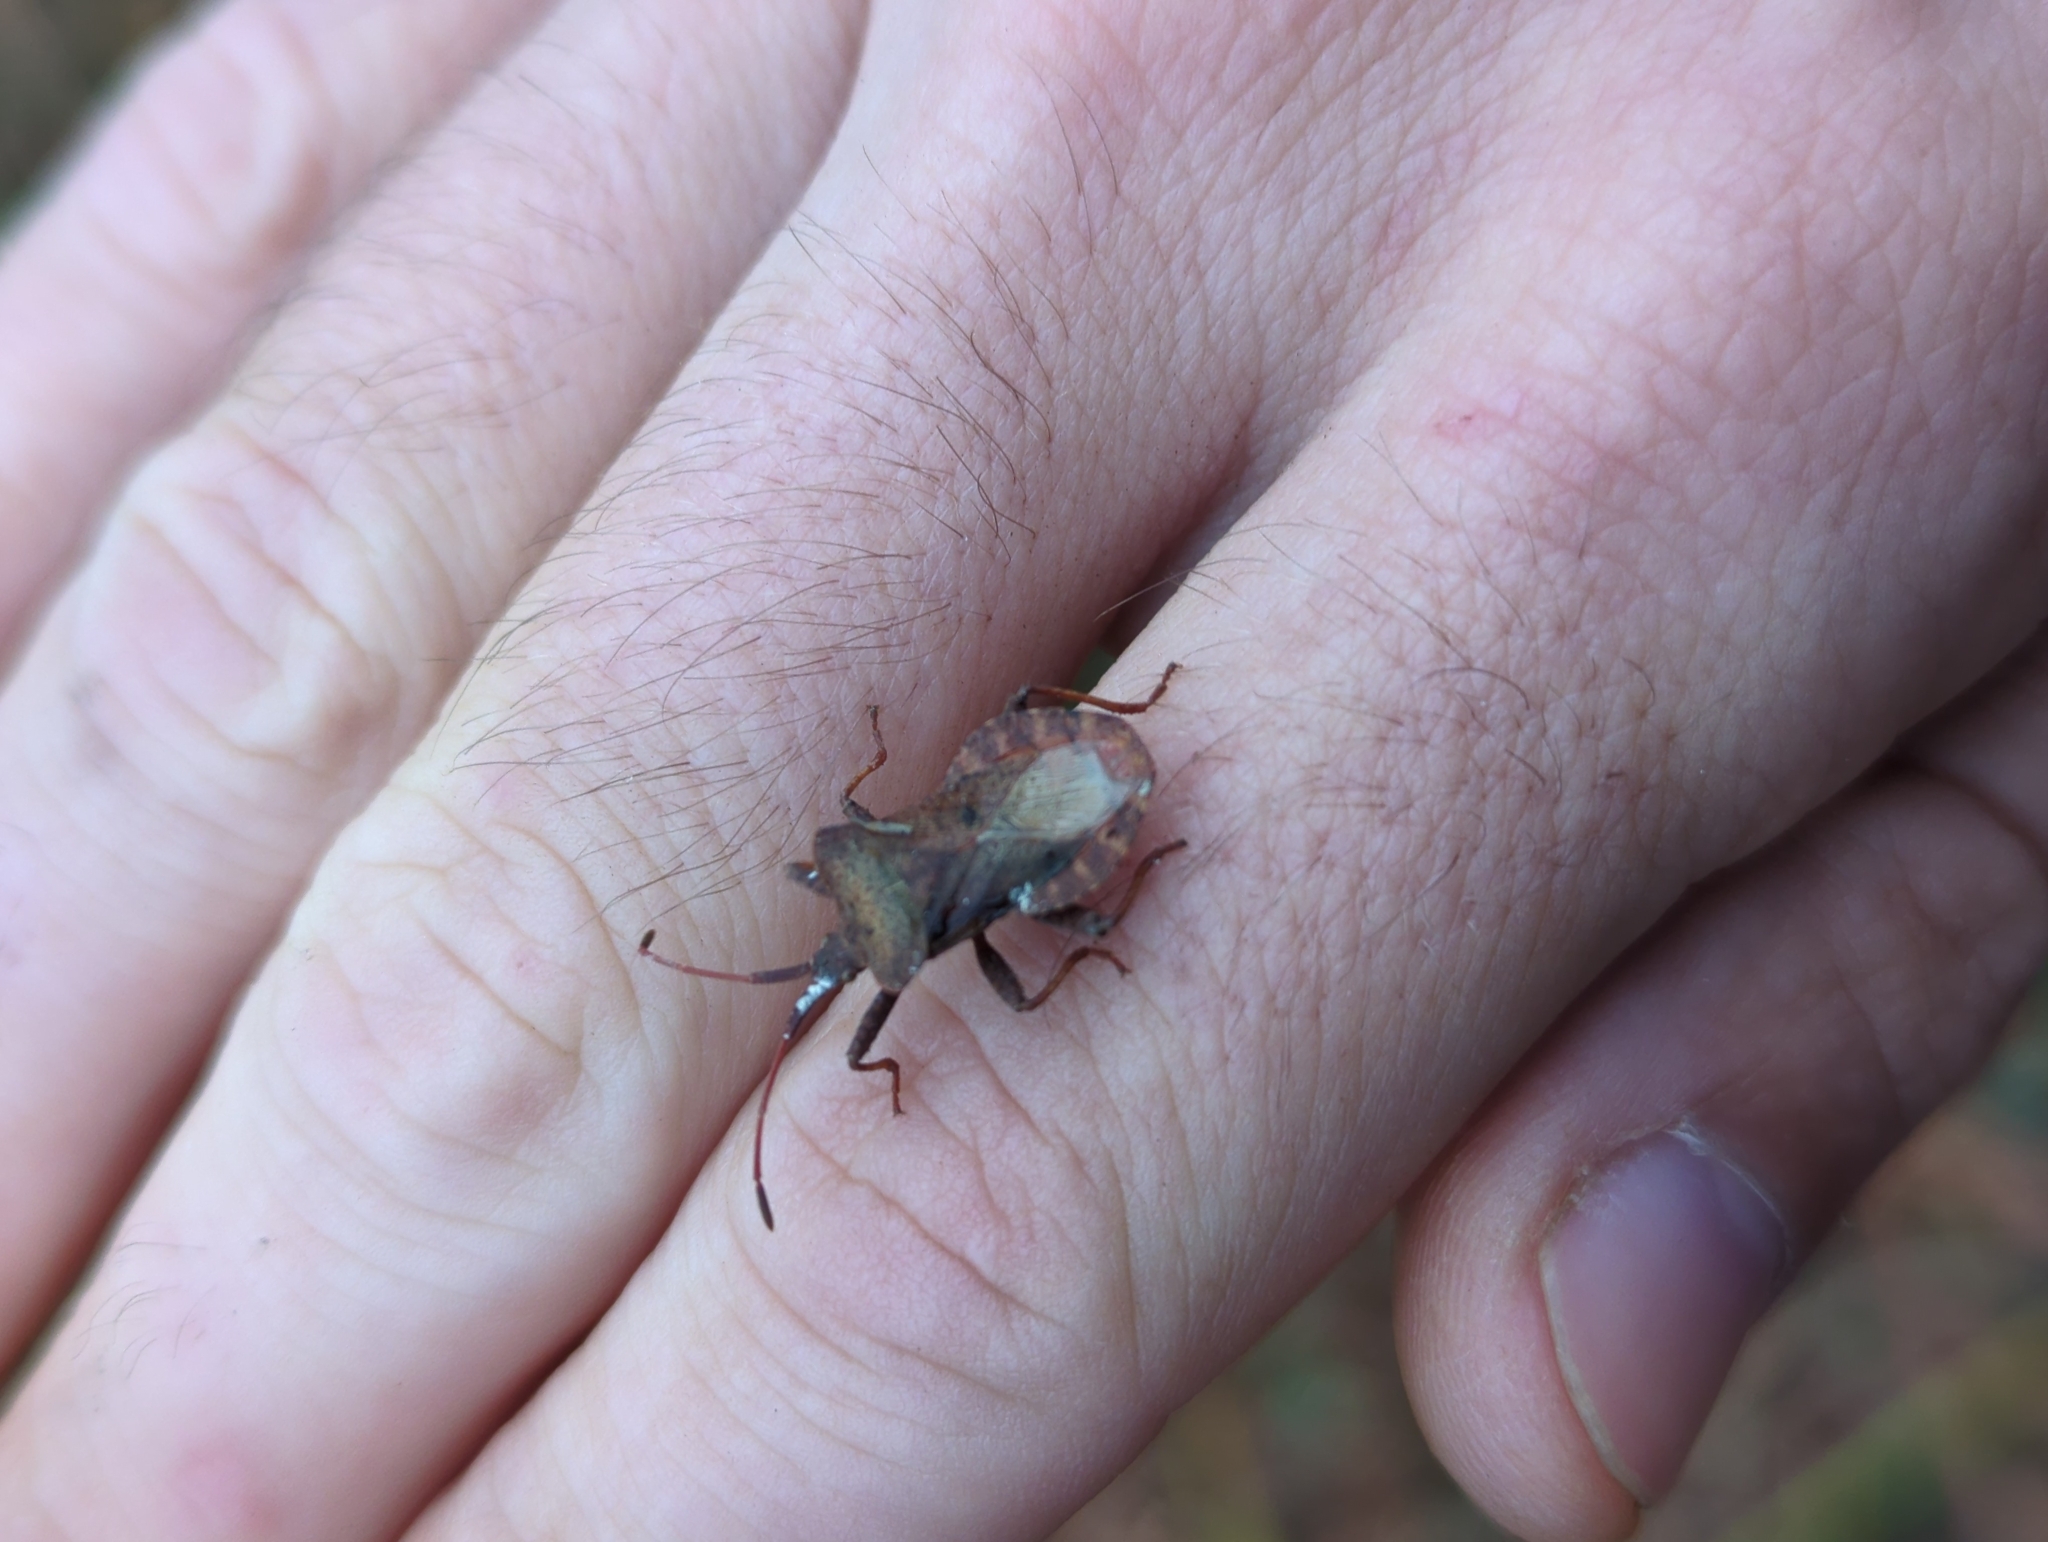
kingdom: Animalia
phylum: Arthropoda
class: Insecta
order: Hemiptera
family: Coreidae
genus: Coreus
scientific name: Coreus marginatus
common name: Dock bug
